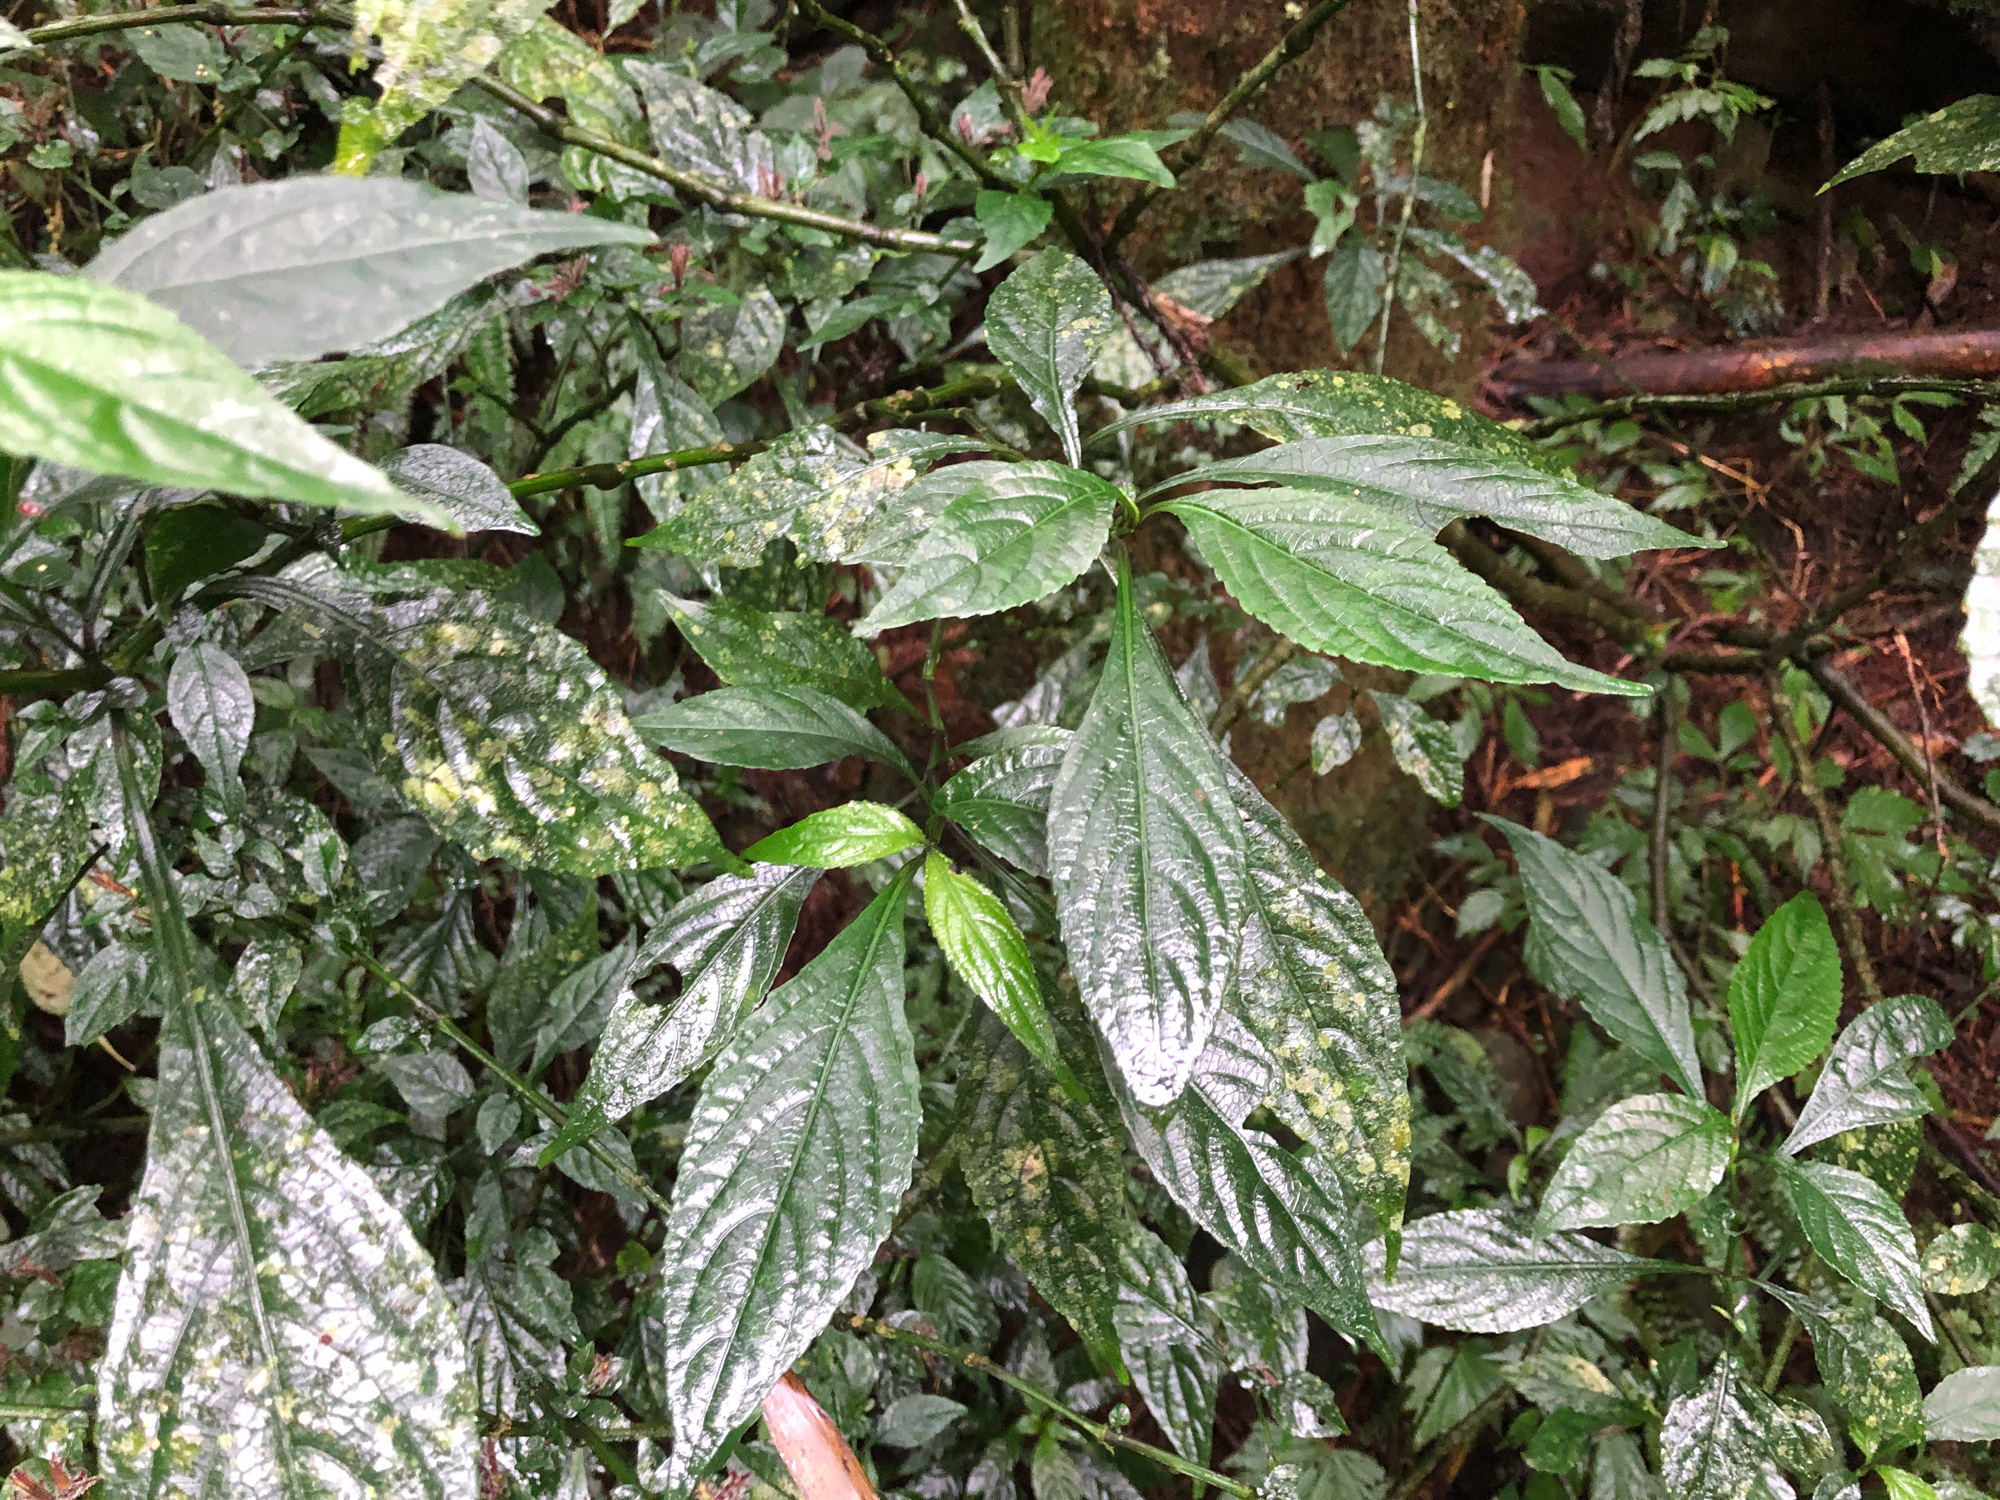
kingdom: Plantae
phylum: Tracheophyta
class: Magnoliopsida
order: Lamiales
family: Acanthaceae
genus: Strobilanthes
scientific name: Strobilanthes flexicaulis
